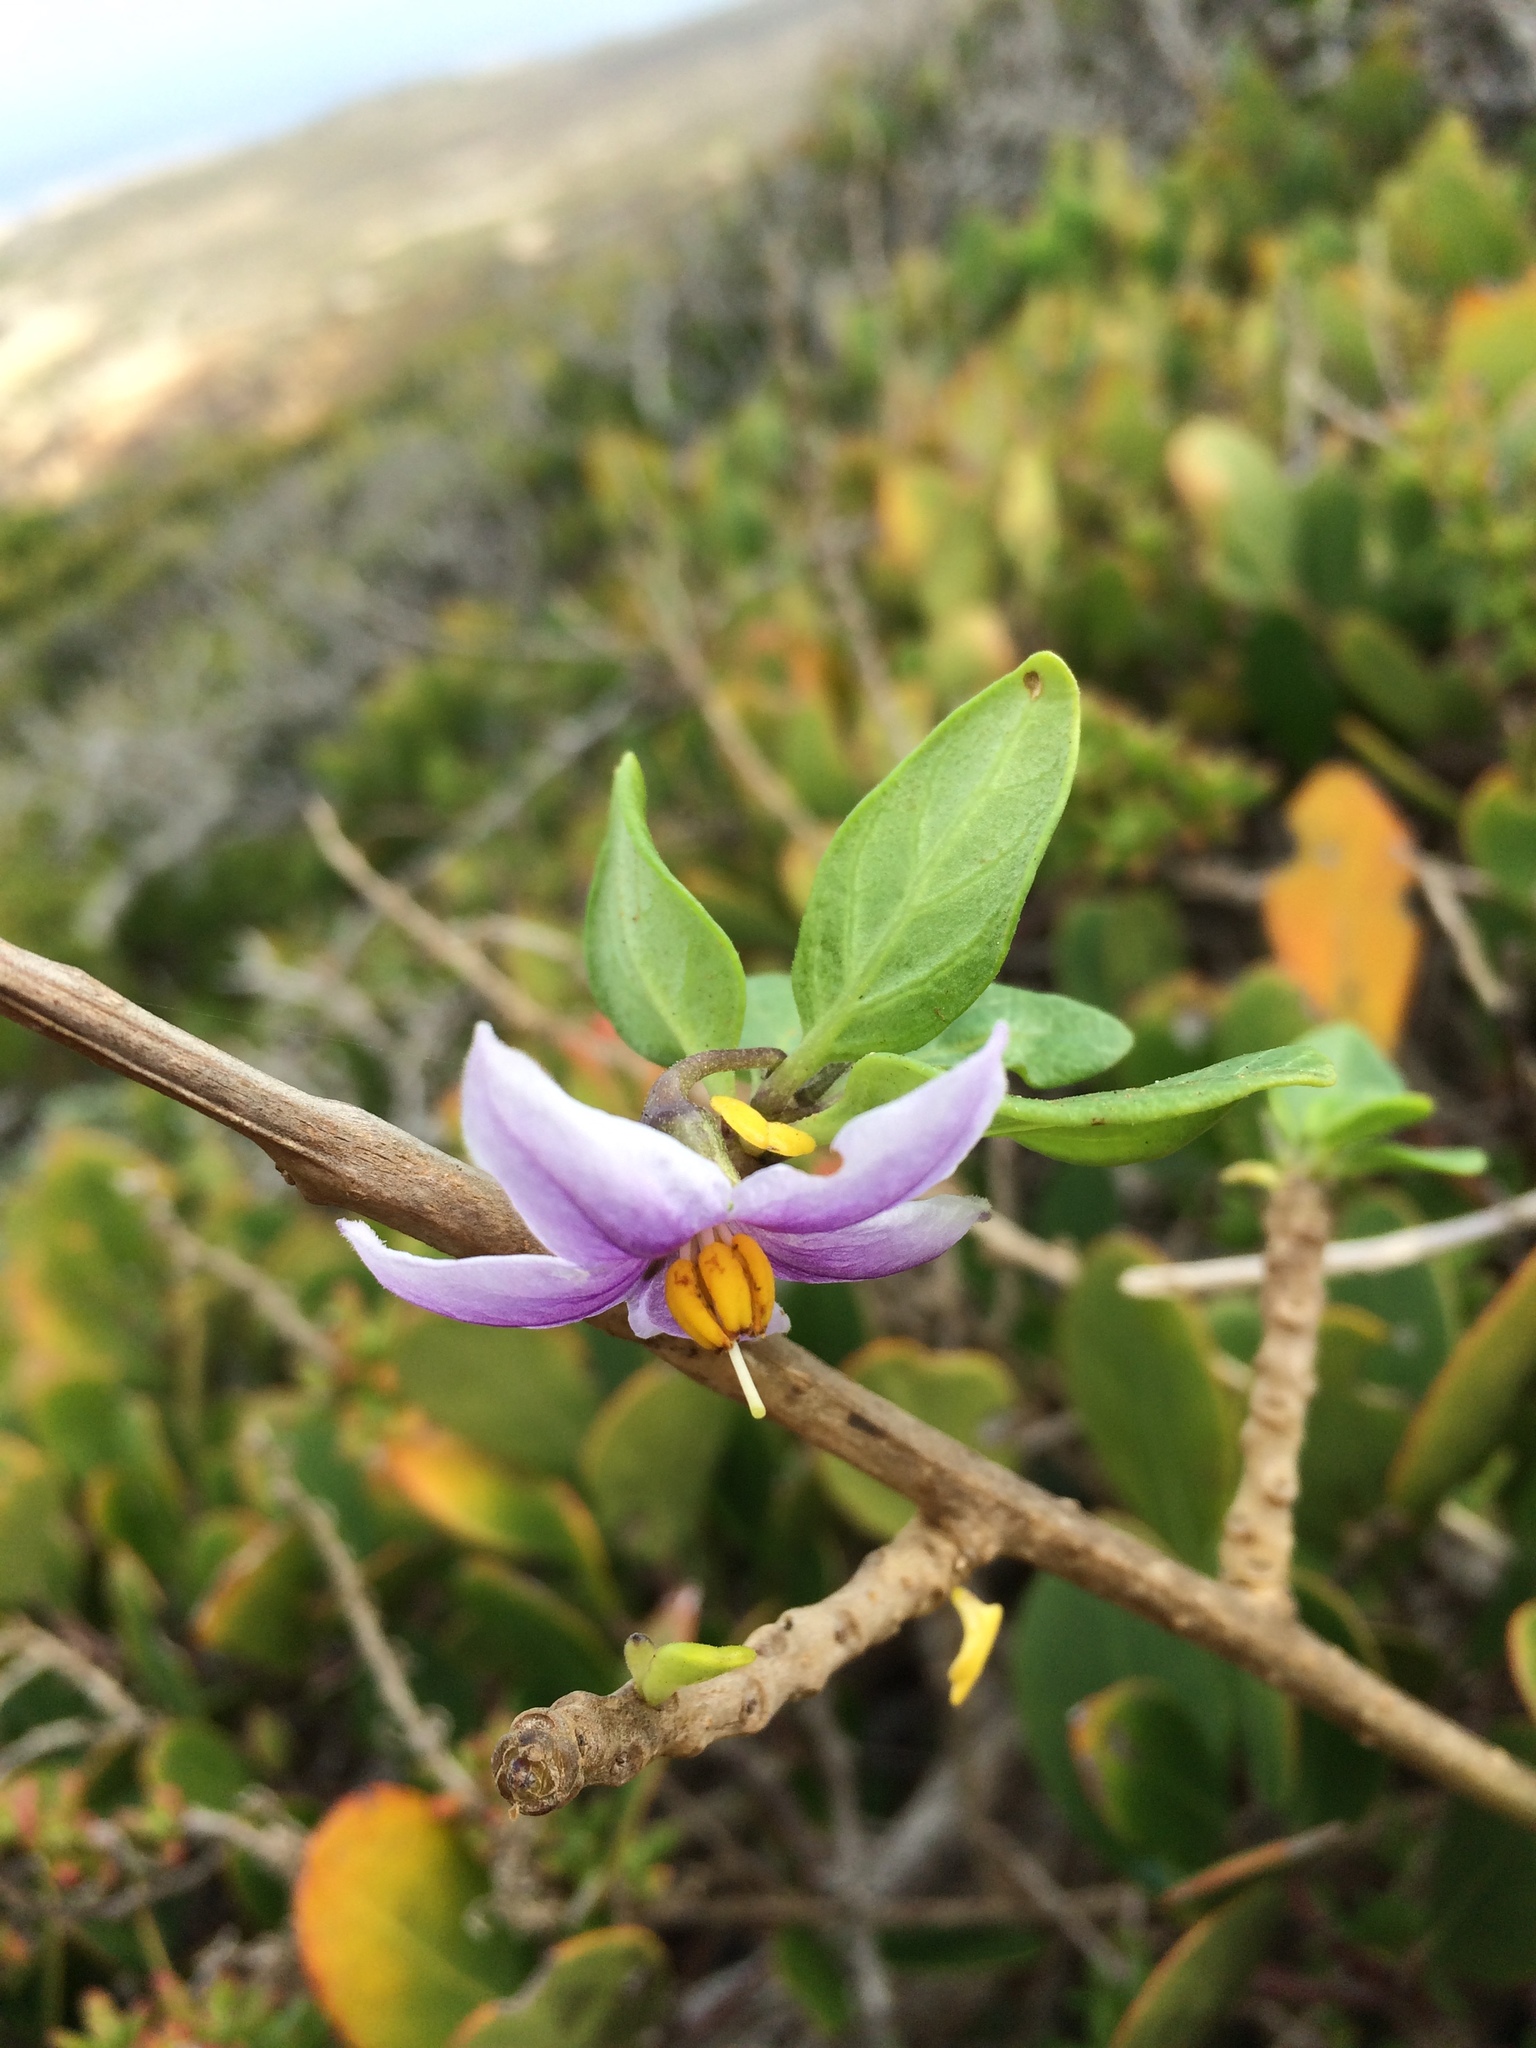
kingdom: Plantae
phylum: Tracheophyta
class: Magnoliopsida
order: Solanales
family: Solanaceae
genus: Solanum
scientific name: Solanum guineense
